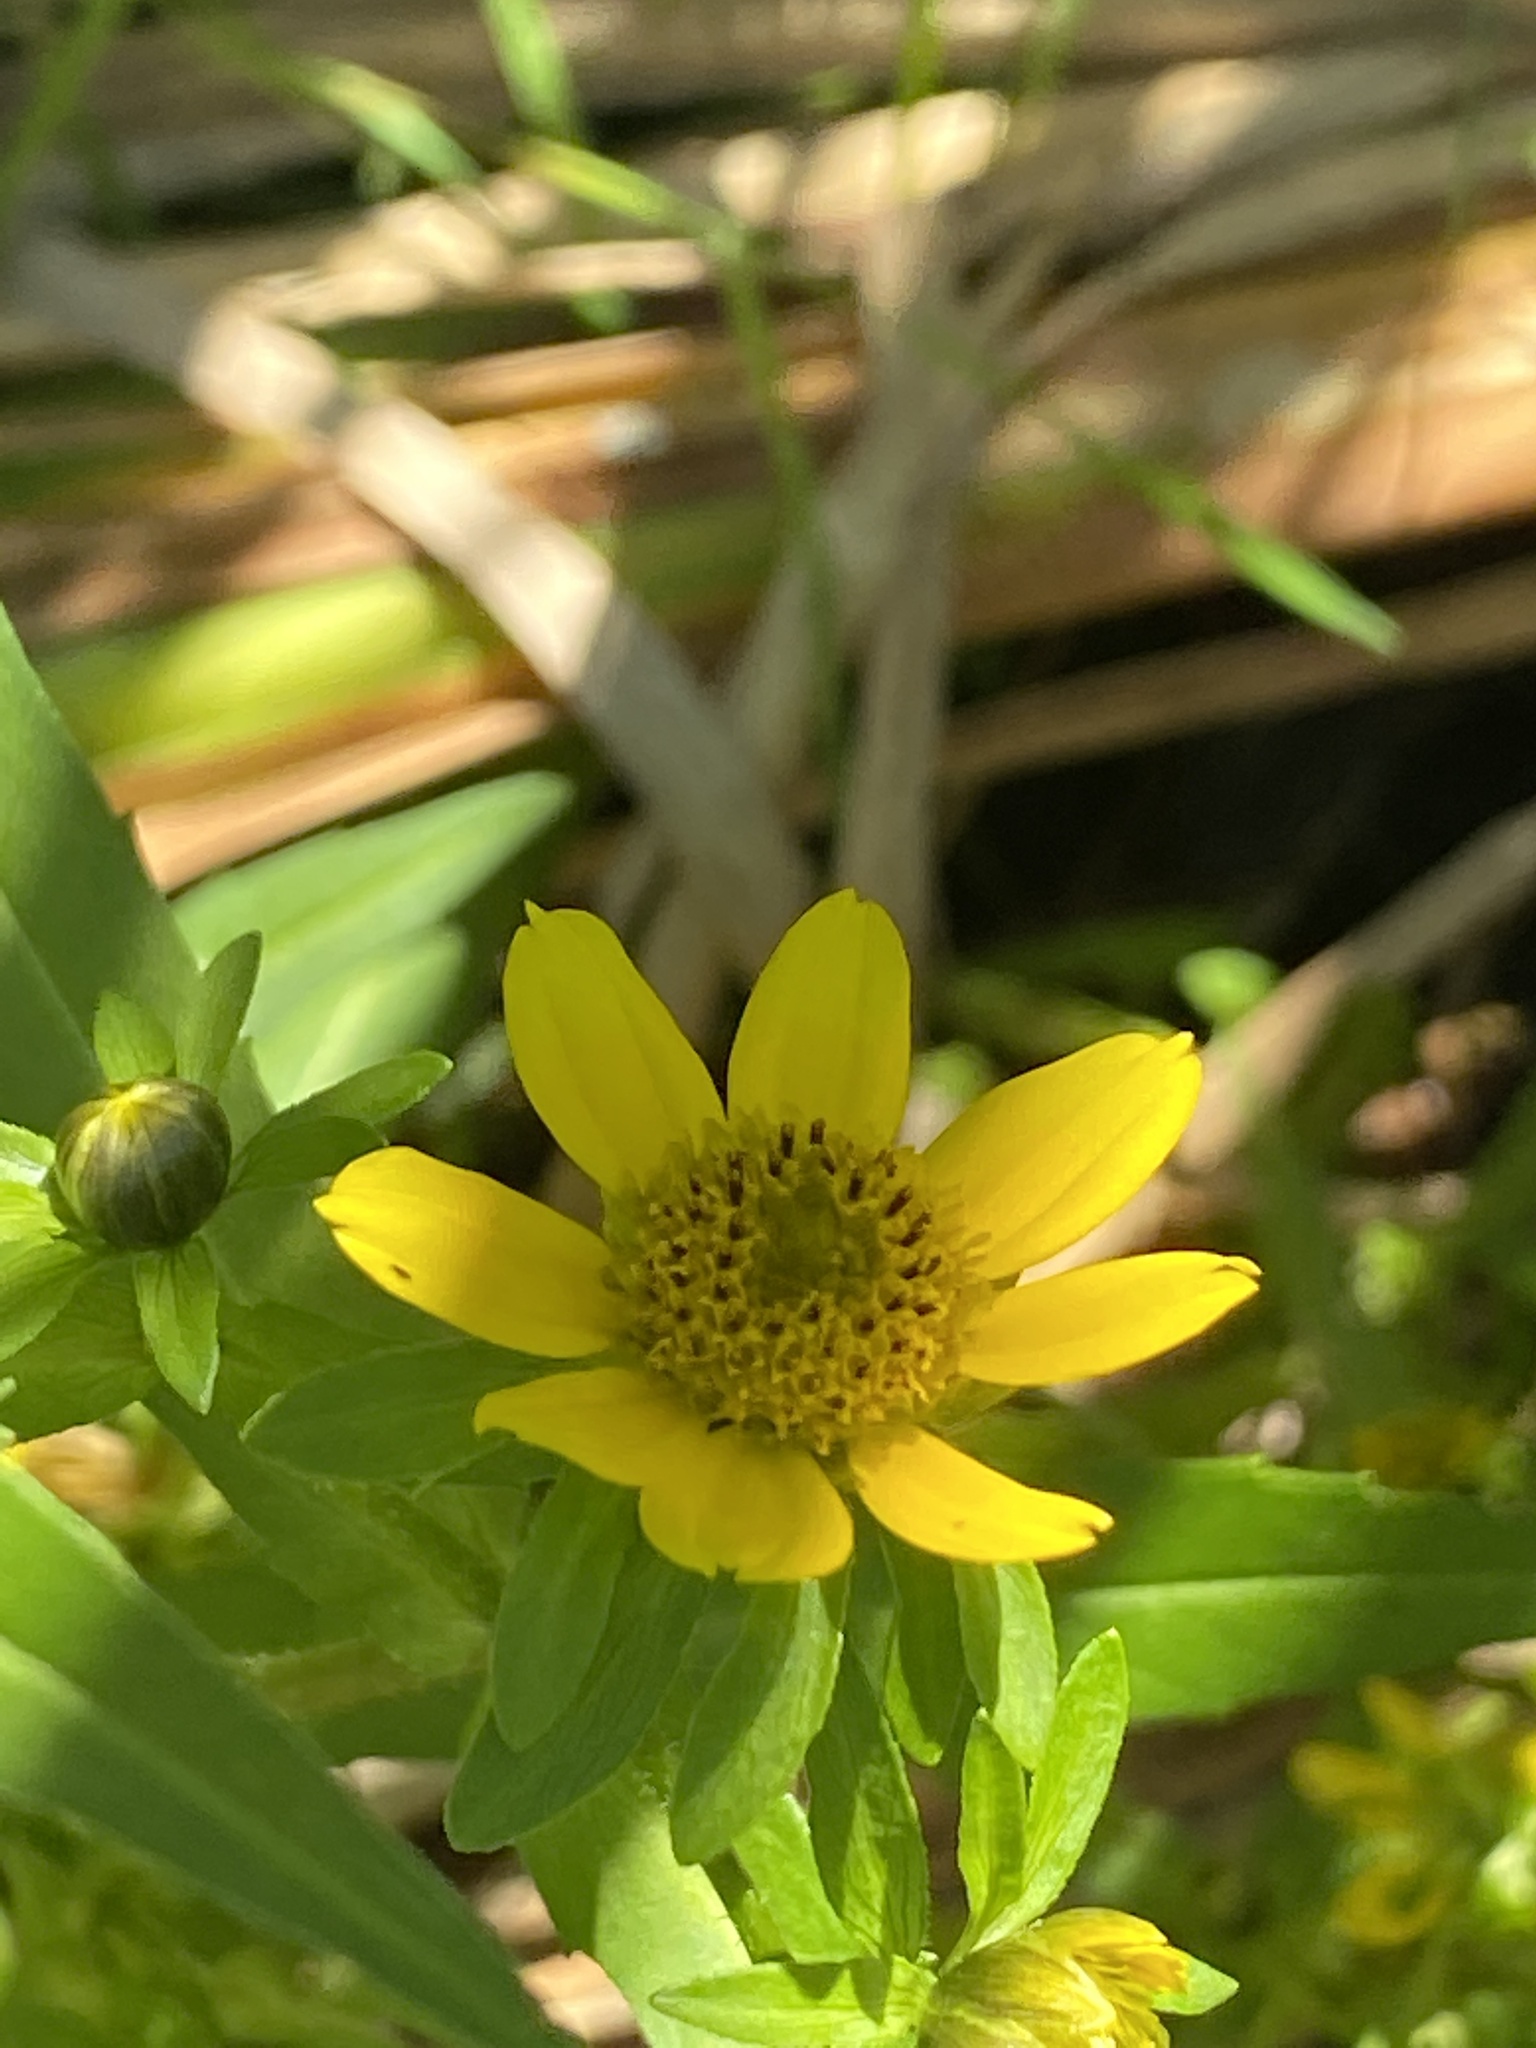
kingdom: Plantae
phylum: Tracheophyta
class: Magnoliopsida
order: Asterales
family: Asteraceae
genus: Bidens
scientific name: Bidens cernua
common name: Nodding bur-marigold
